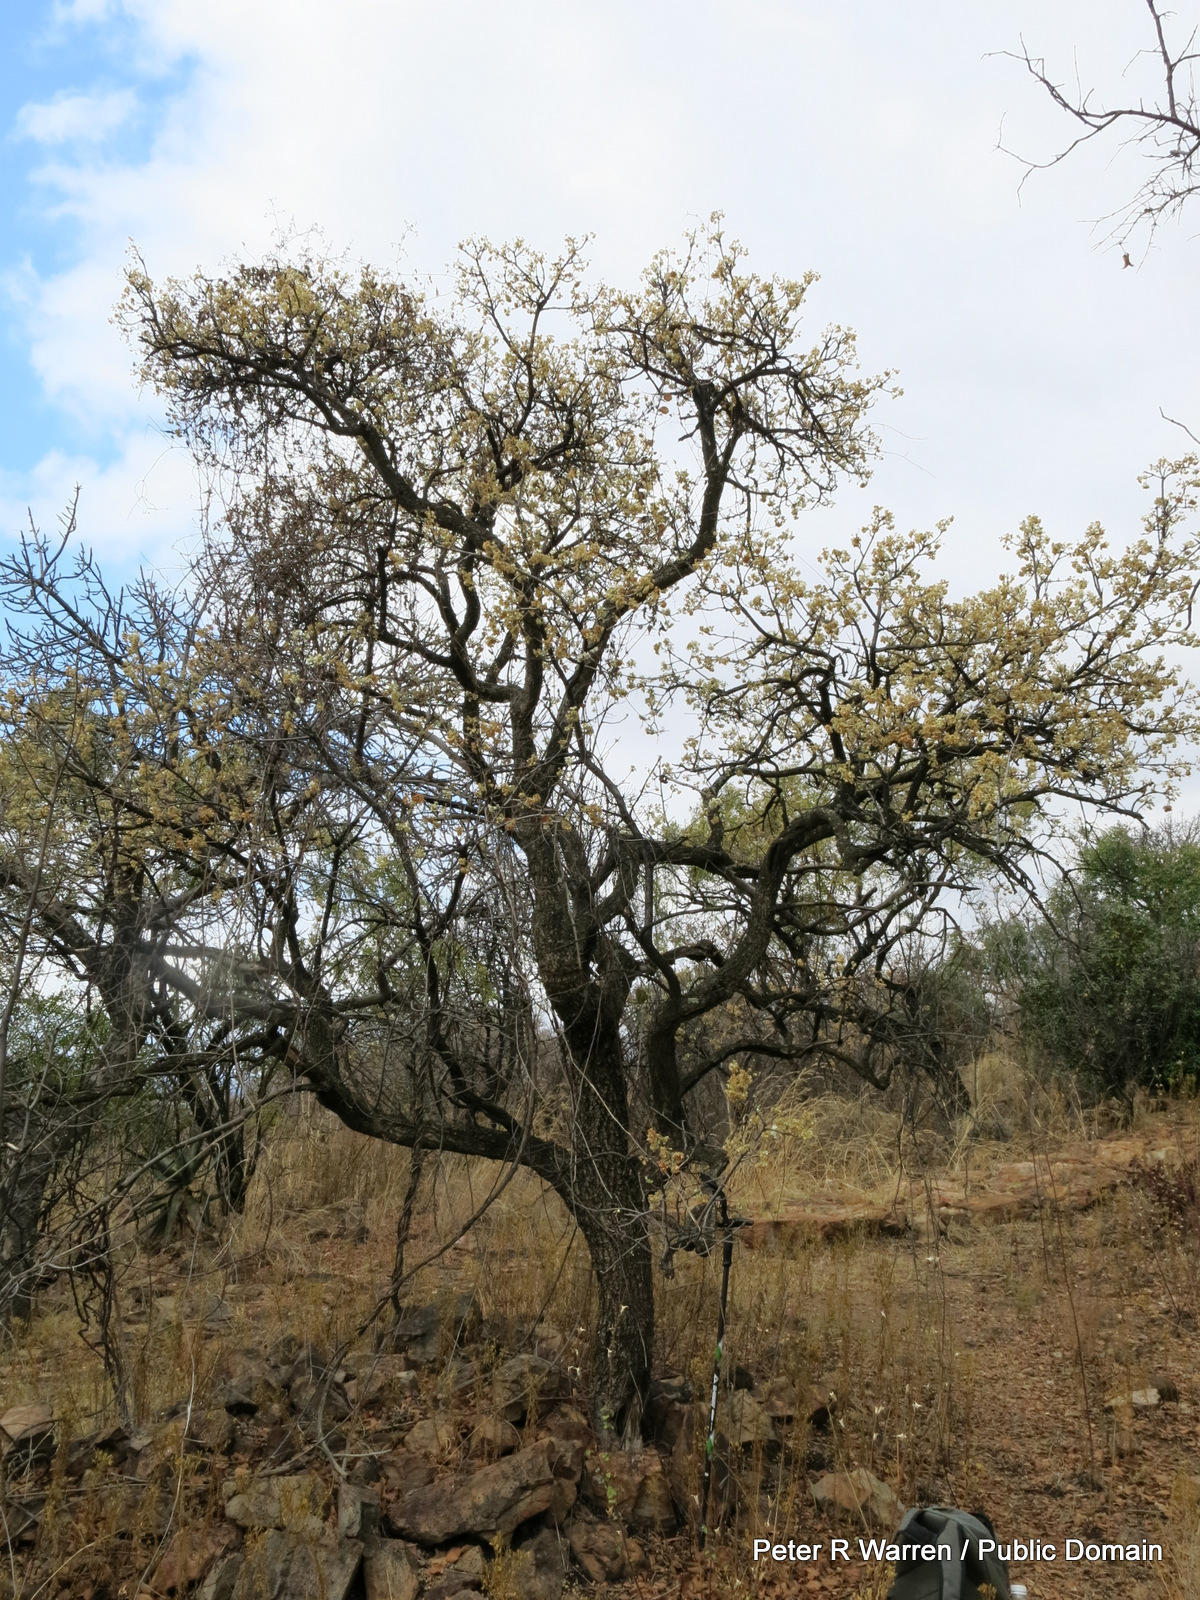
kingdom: Plantae
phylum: Tracheophyta
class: Magnoliopsida
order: Malvales
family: Malvaceae
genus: Dombeya
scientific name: Dombeya rotundifolia
